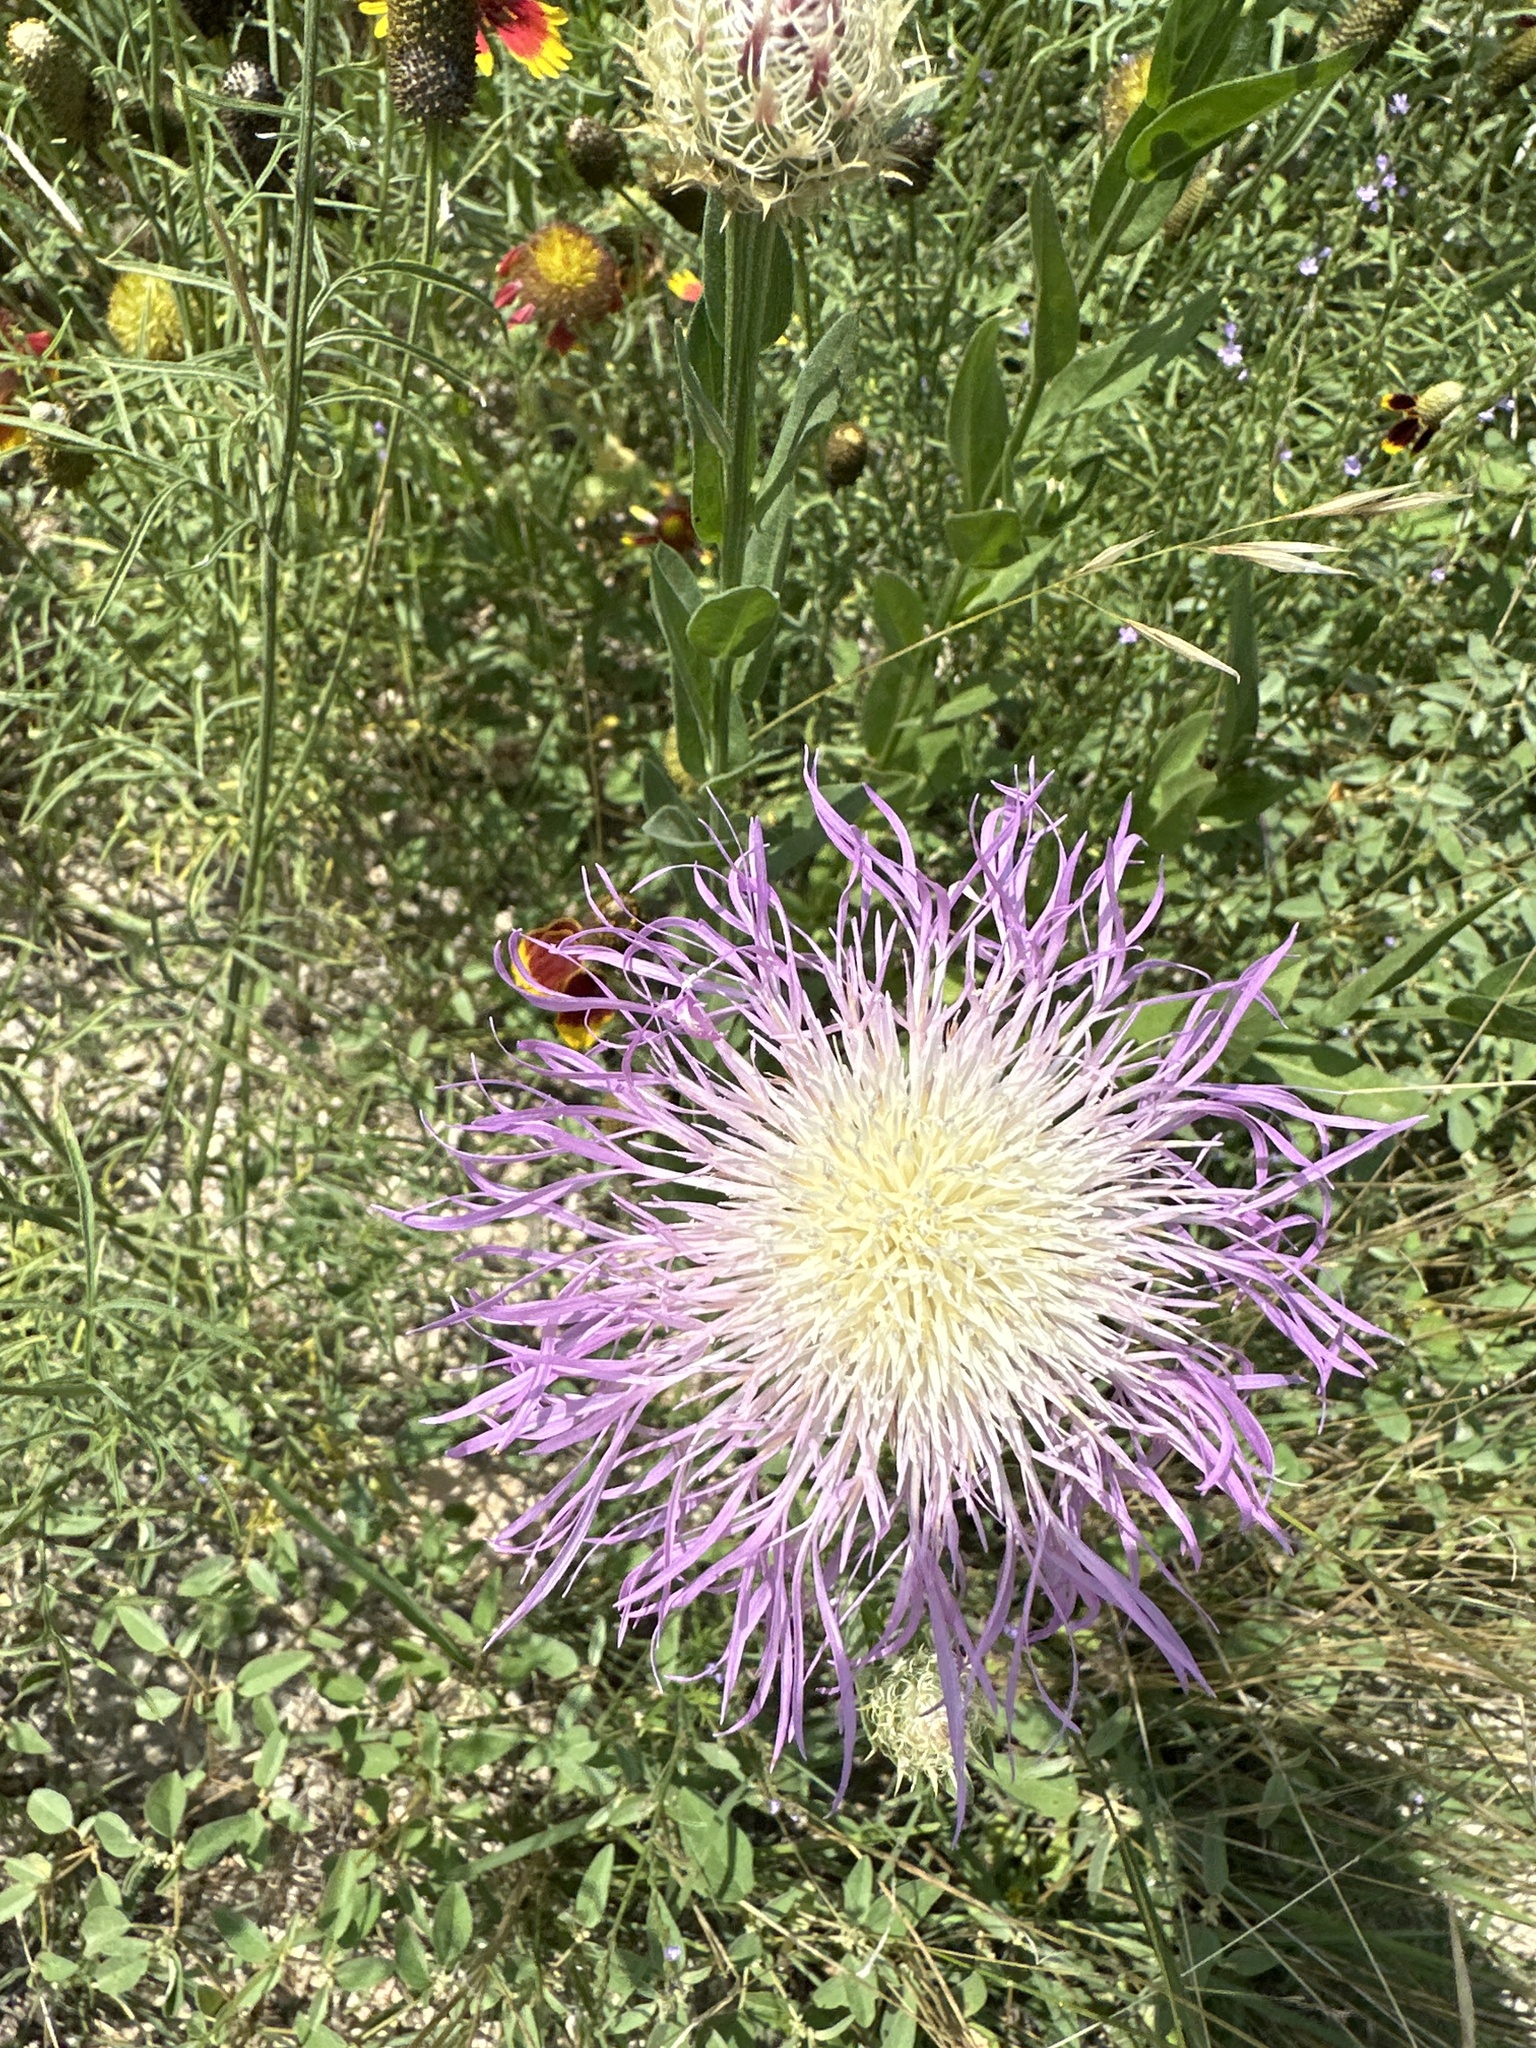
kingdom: Plantae
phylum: Tracheophyta
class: Magnoliopsida
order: Asterales
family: Asteraceae
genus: Plectocephalus
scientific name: Plectocephalus americanus
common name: American basket-flower
